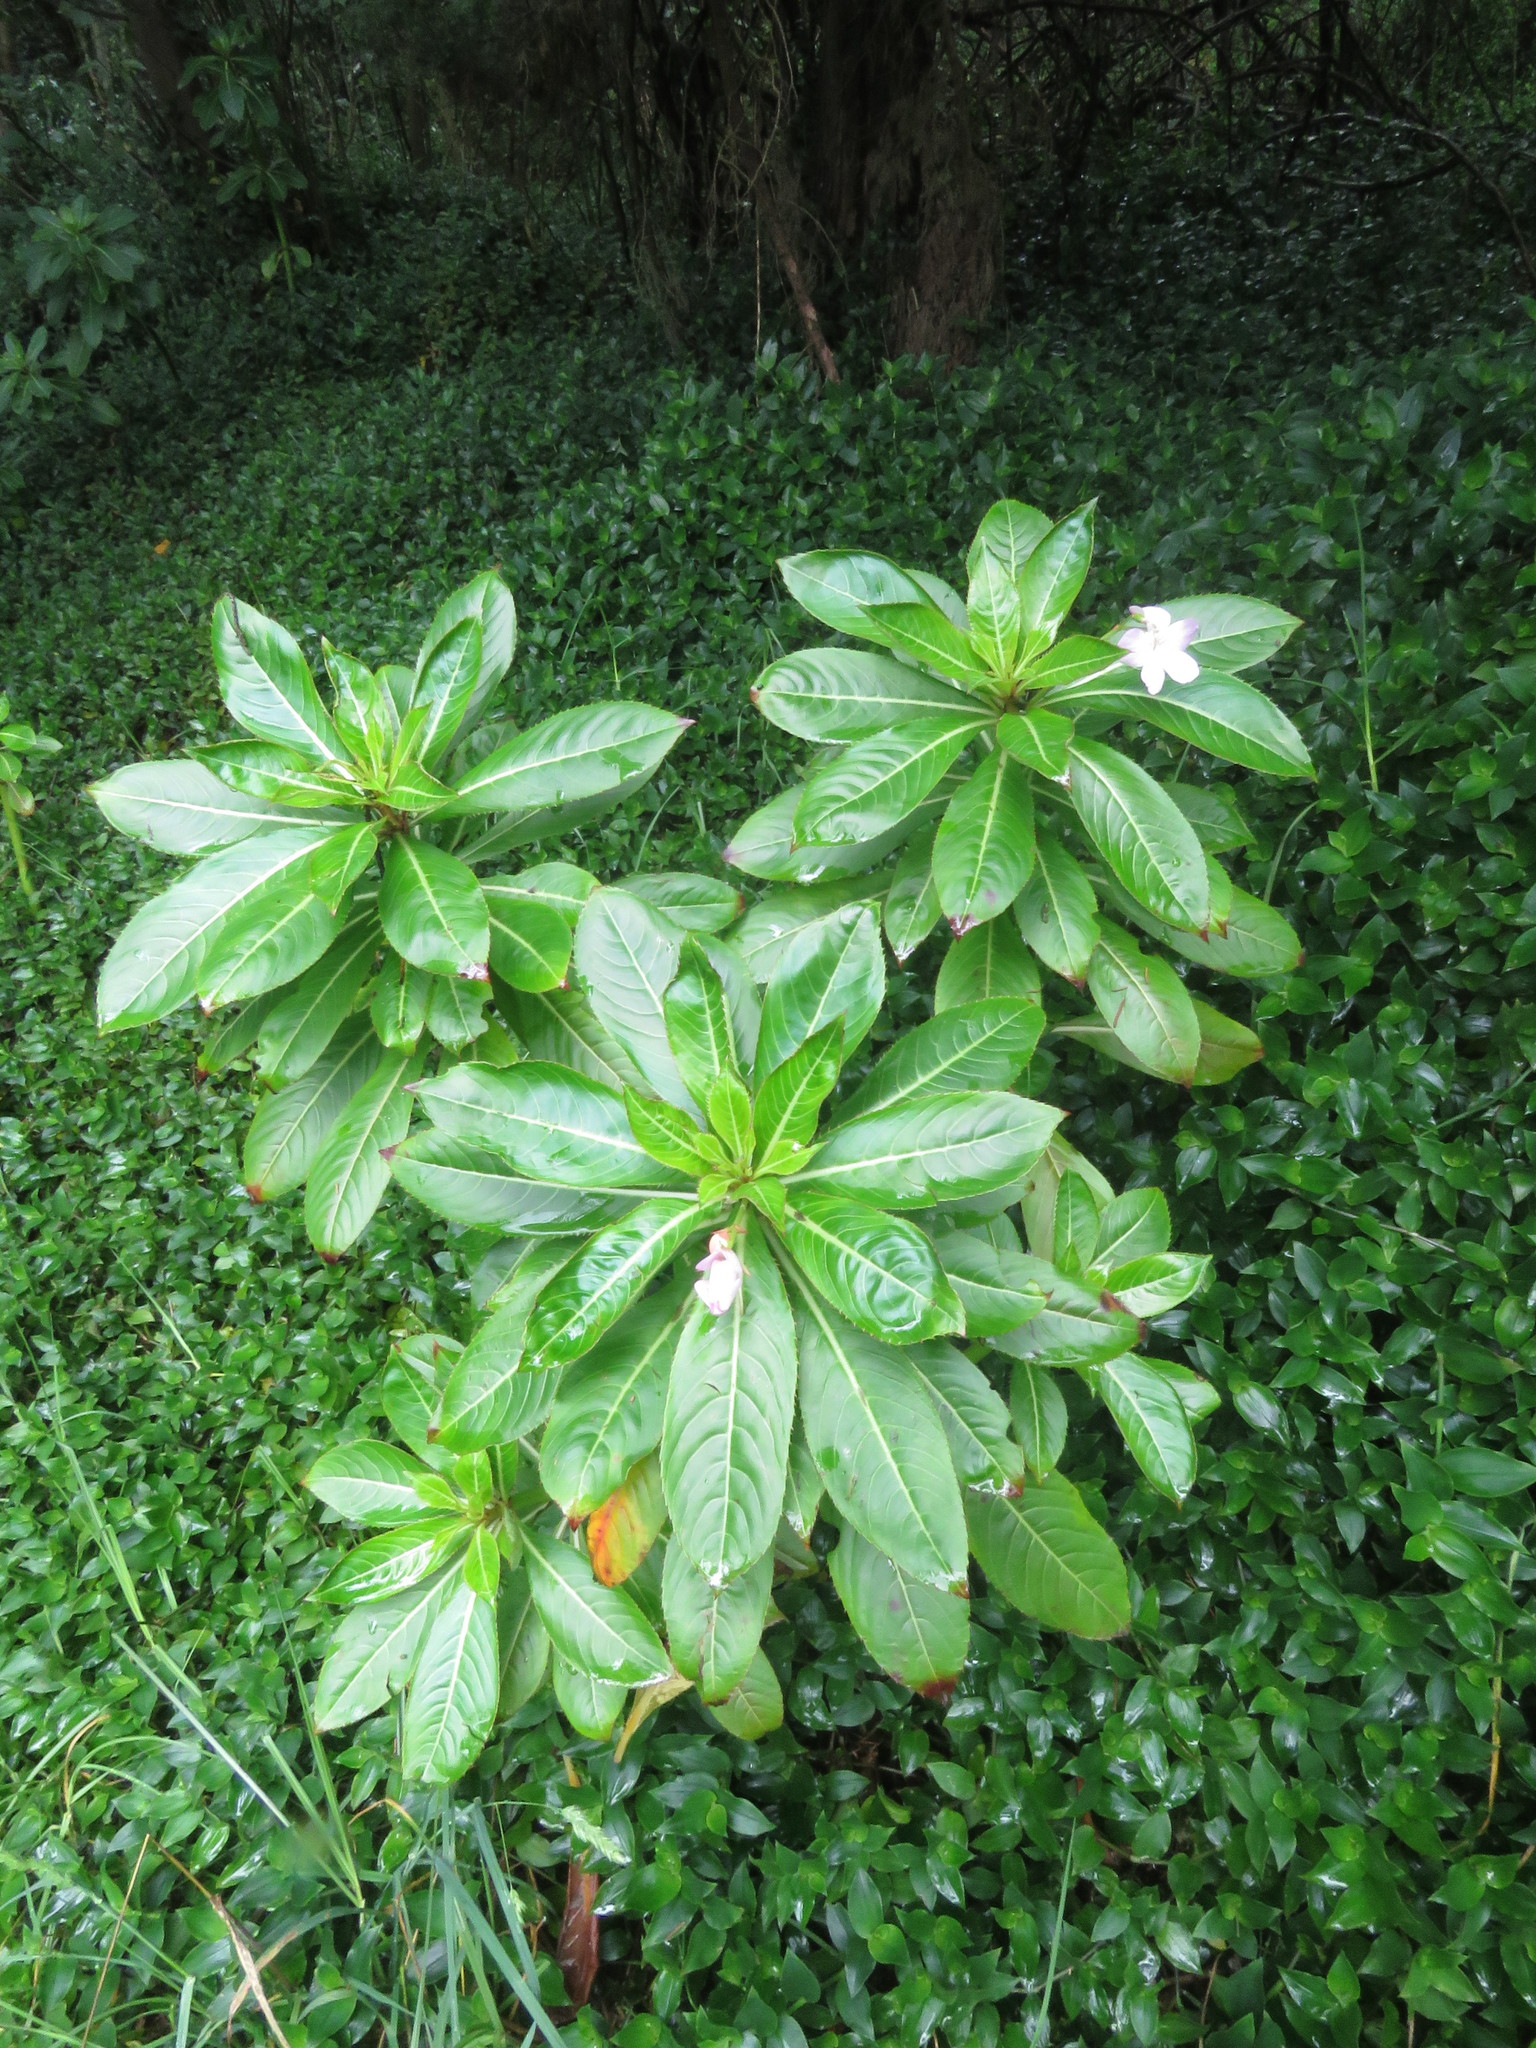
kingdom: Plantae
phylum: Tracheophyta
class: Magnoliopsida
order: Ericales
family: Balsaminaceae
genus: Impatiens
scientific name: Impatiens sodenii
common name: Oliver's touch-me-not
